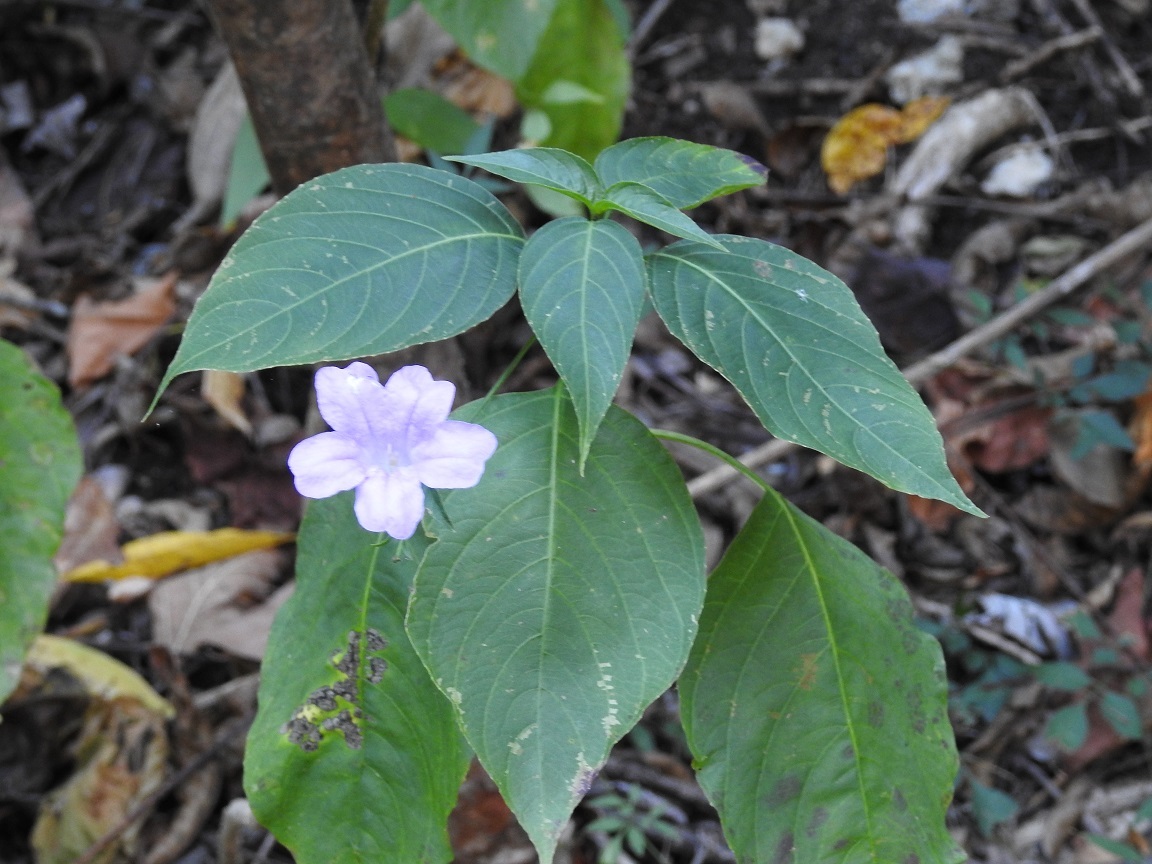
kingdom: Plantae
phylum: Tracheophyta
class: Magnoliopsida
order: Lamiales
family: Acanthaceae
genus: Ruellia
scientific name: Ruellia breedlovei
